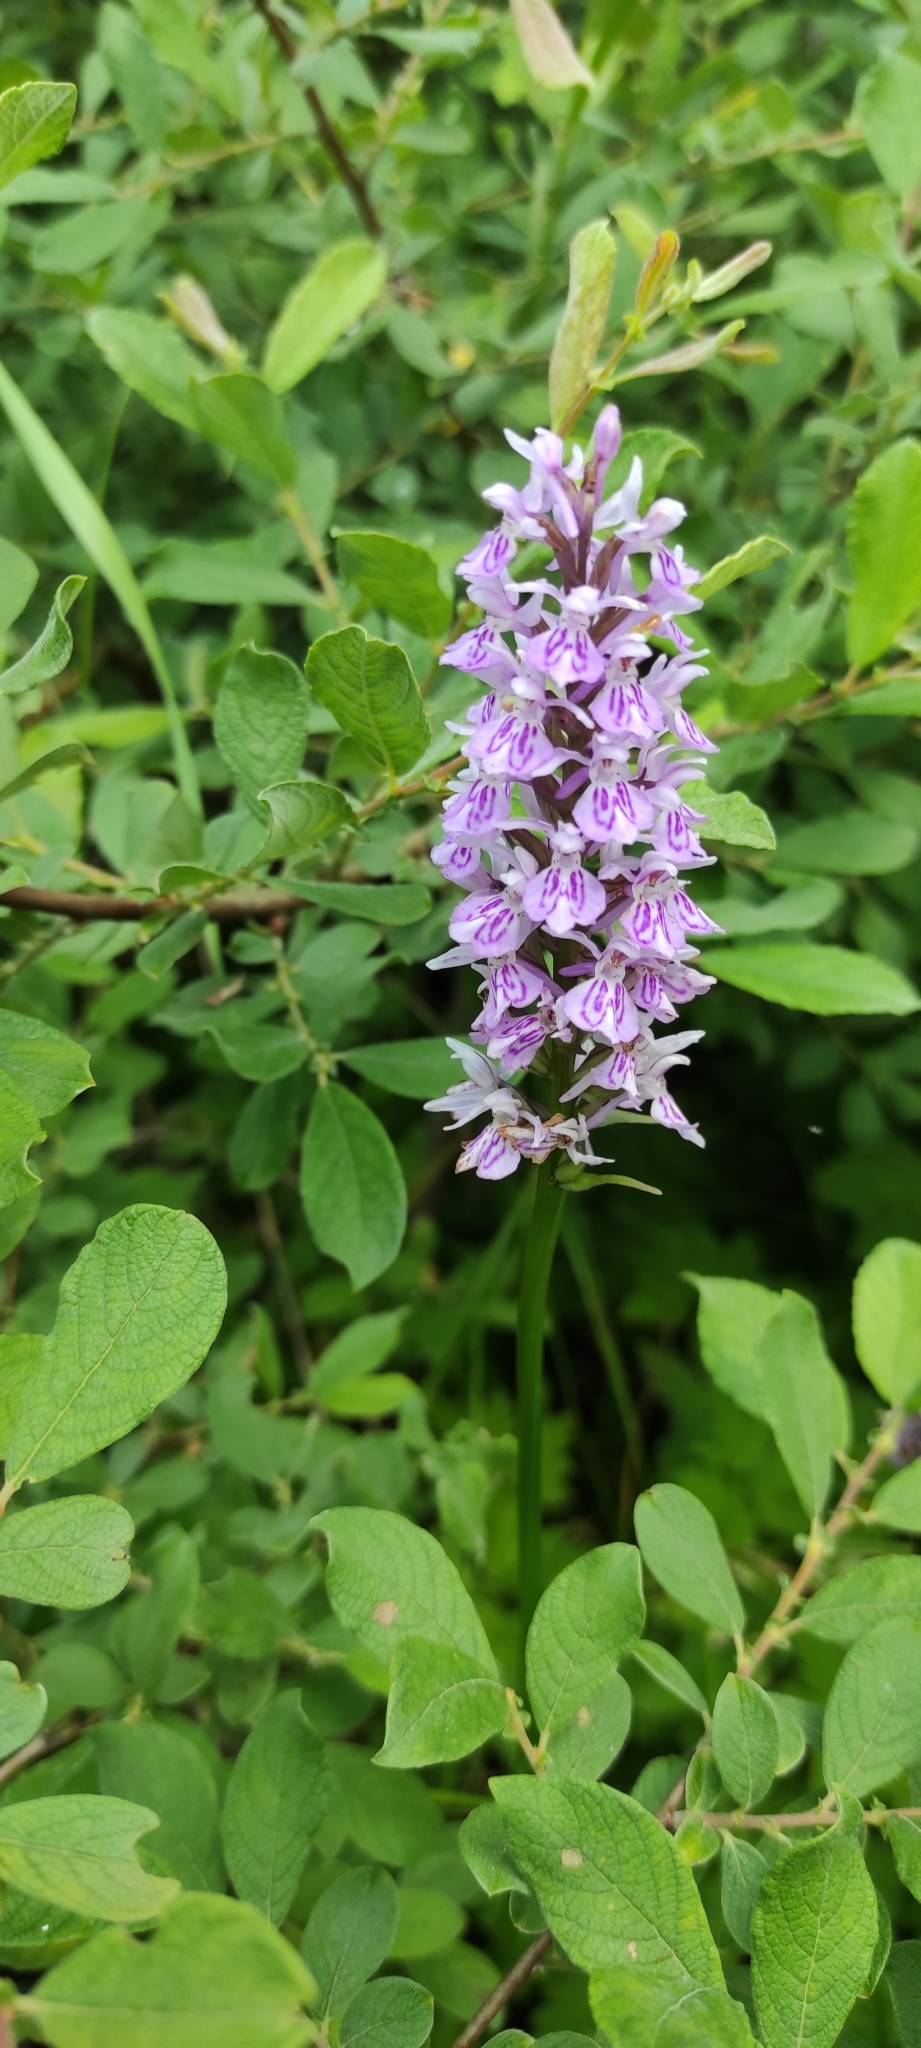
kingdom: Plantae
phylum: Tracheophyta
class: Liliopsida
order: Asparagales
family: Orchidaceae
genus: Dactylorhiza
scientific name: Dactylorhiza maculata
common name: Heath spotted-orchid
